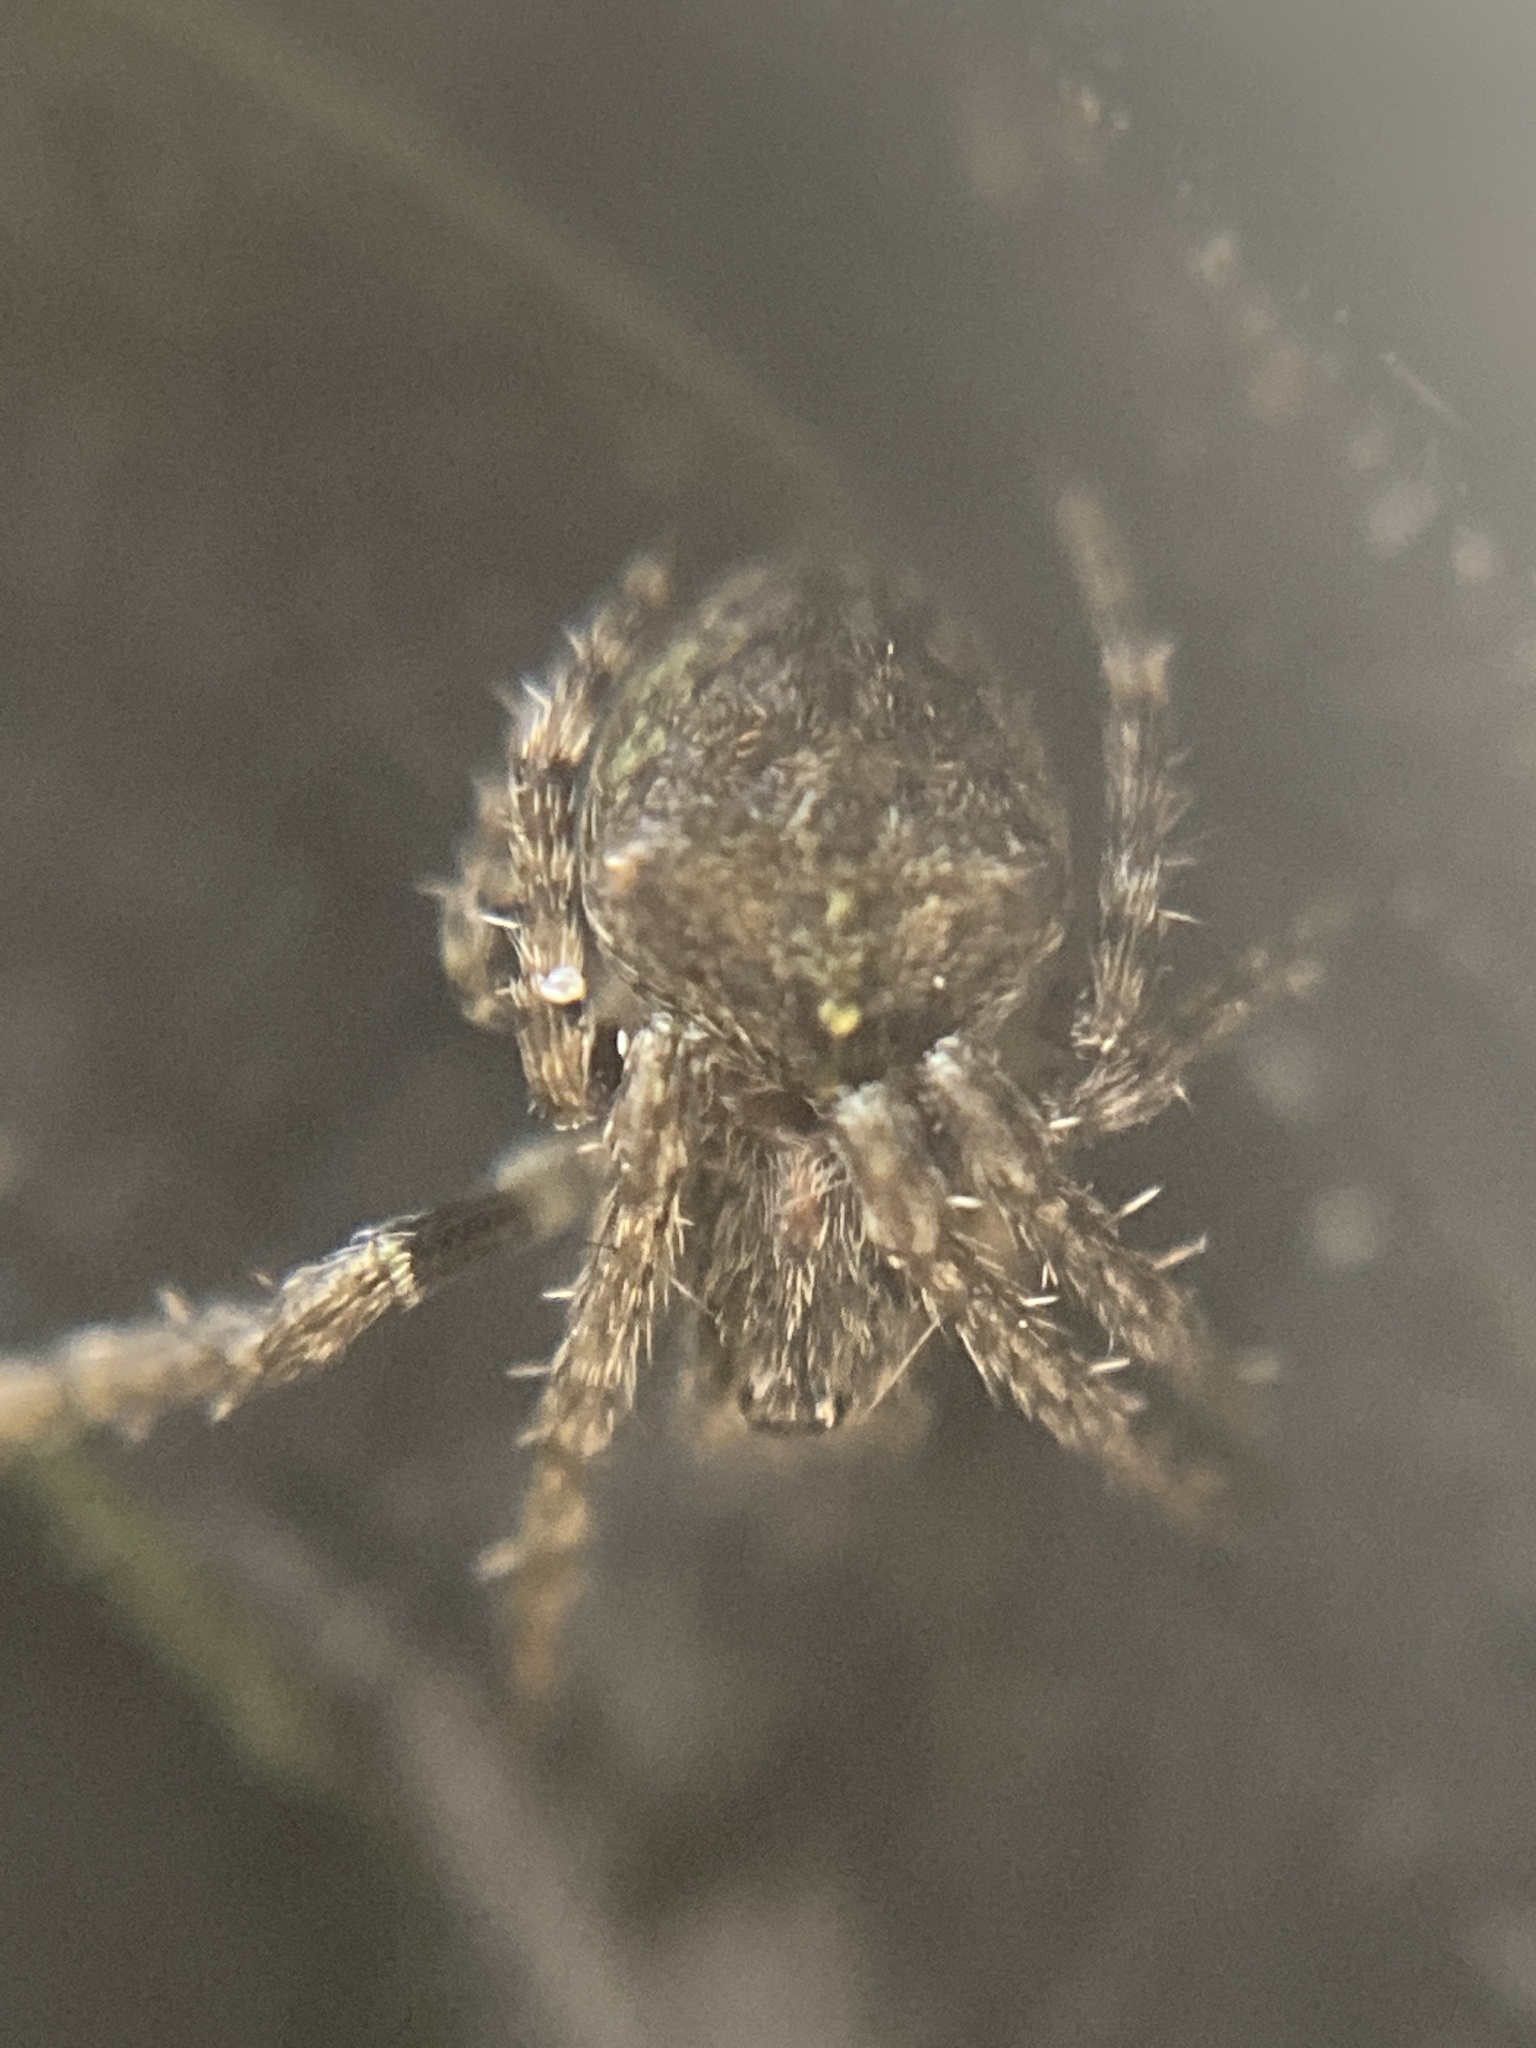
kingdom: Animalia
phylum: Arthropoda
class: Arachnida
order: Araneae
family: Araneidae
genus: Gibbaranea
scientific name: Gibbaranea gibbosa
